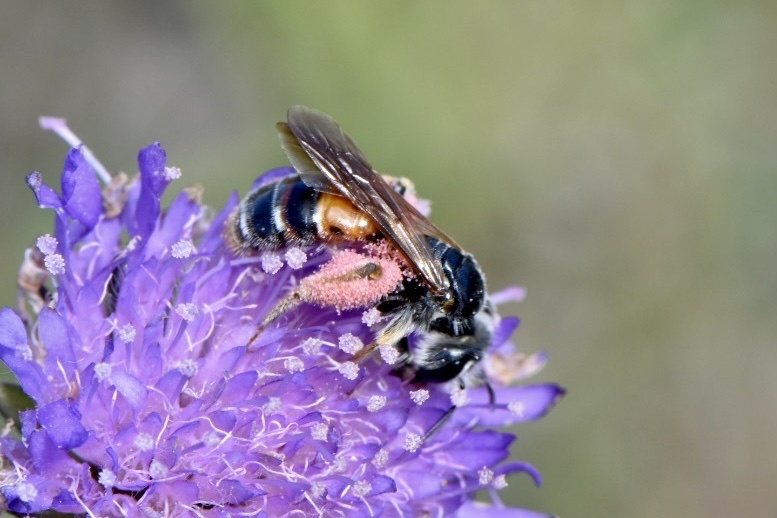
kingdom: Animalia
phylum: Arthropoda
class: Insecta
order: Hymenoptera
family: Andrenidae
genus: Andrena
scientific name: Andrena hattorfiana
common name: Large scabious mining bee
